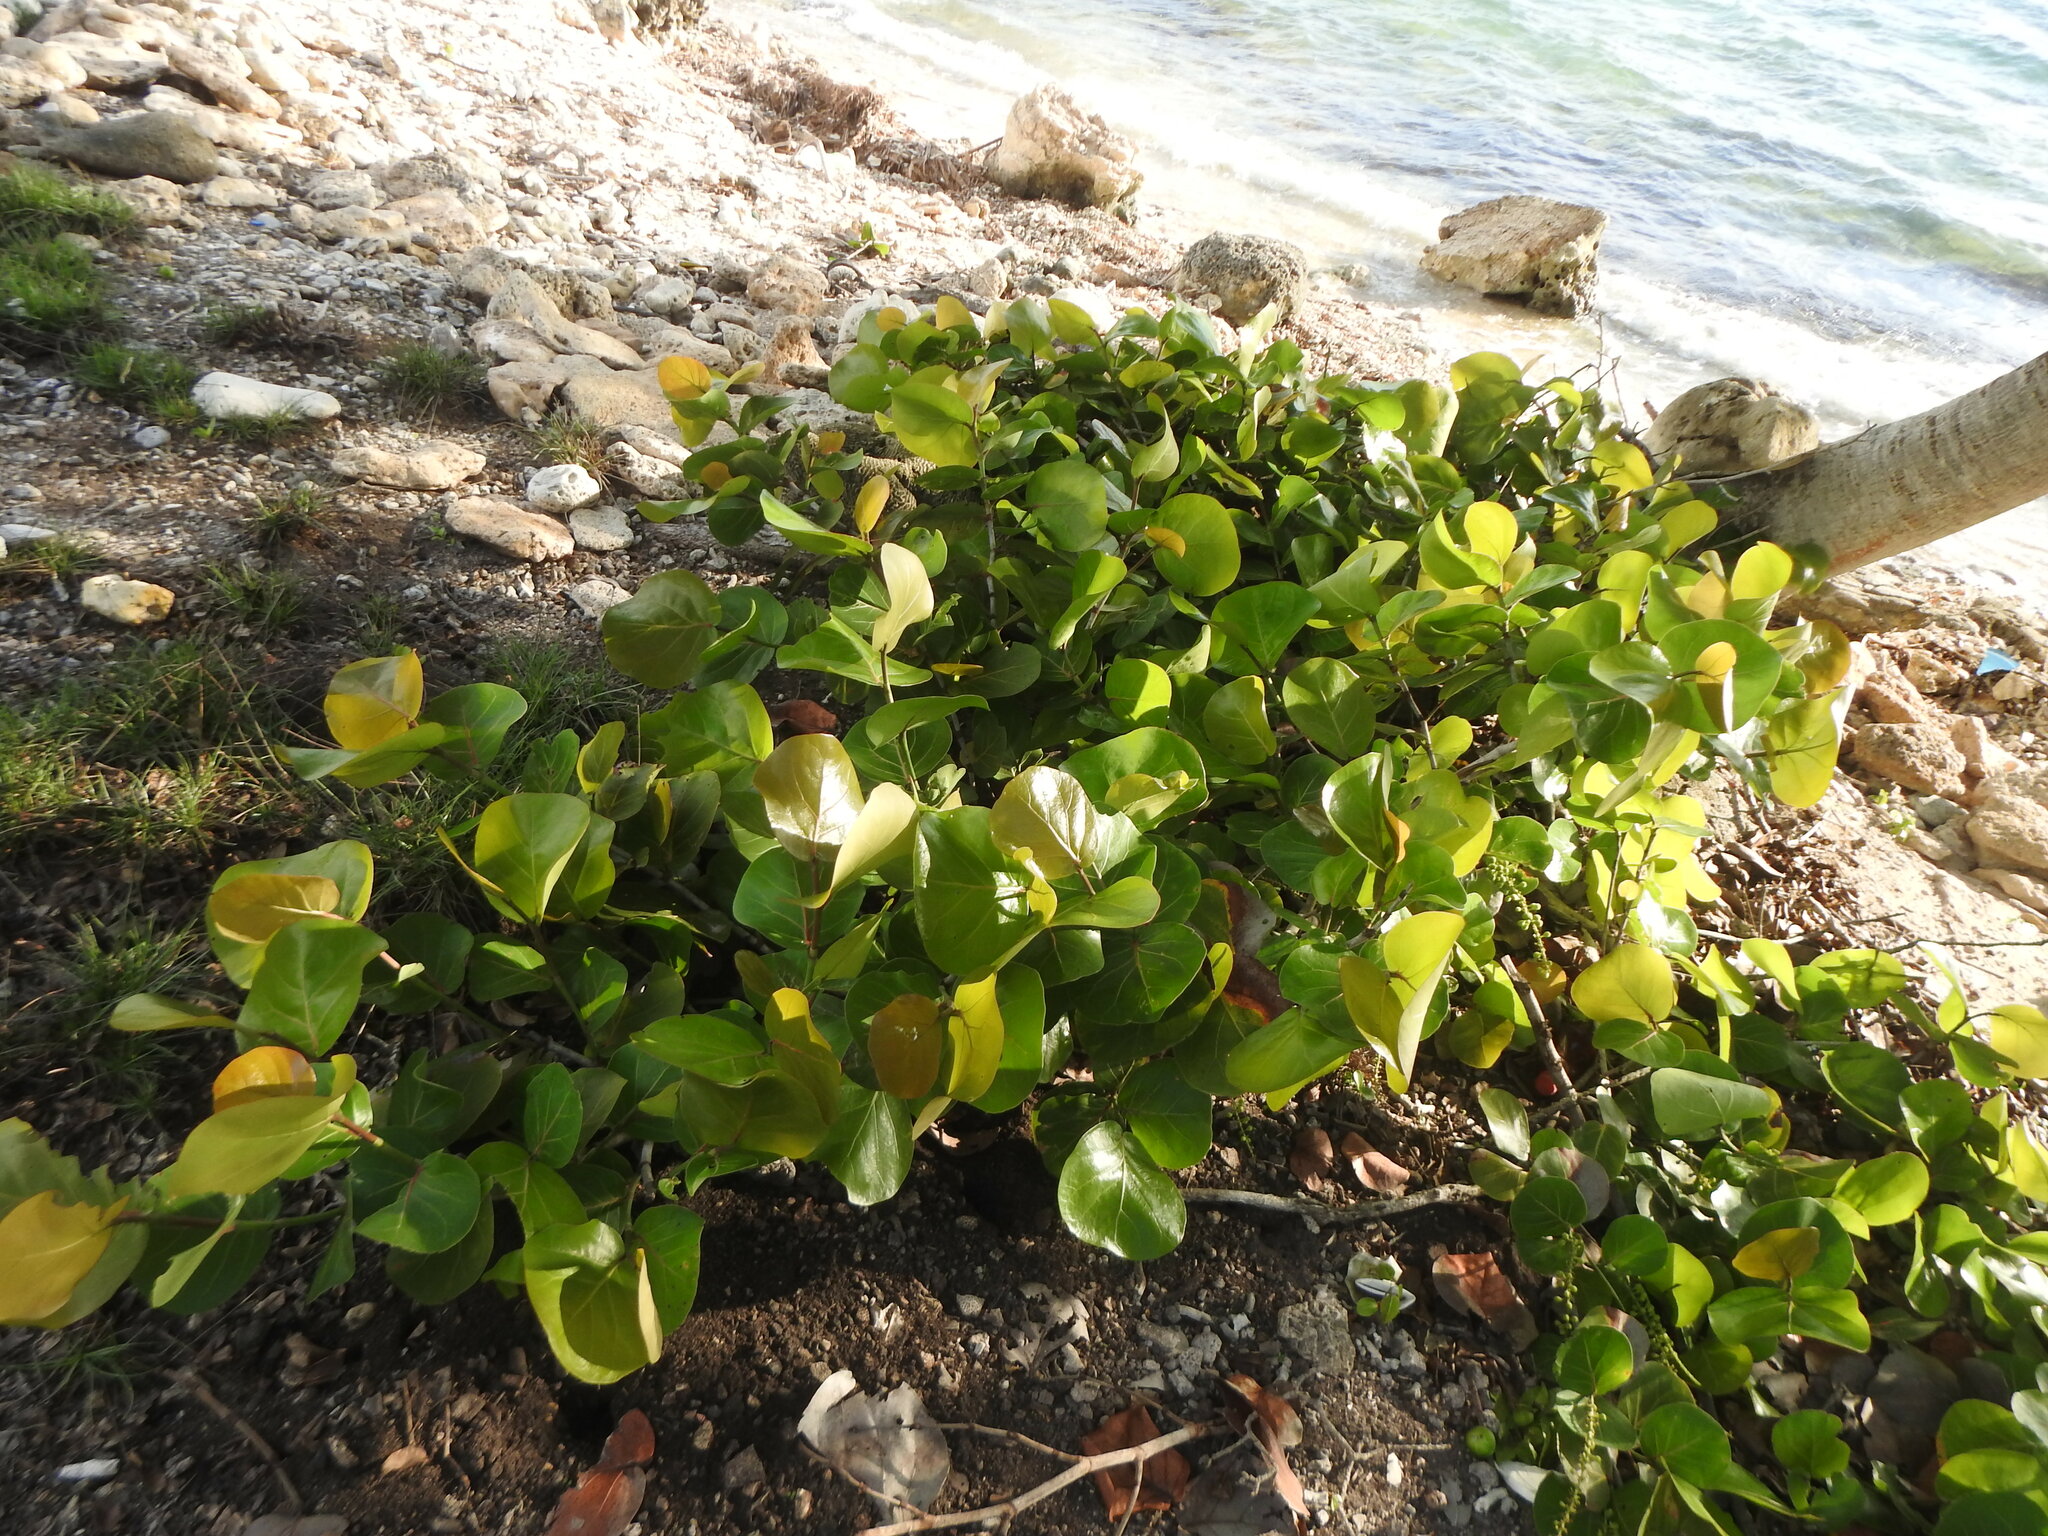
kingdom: Plantae
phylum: Tracheophyta
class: Magnoliopsida
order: Caryophyllales
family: Polygonaceae
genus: Coccoloba
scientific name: Coccoloba uvifera
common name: Seagrape
